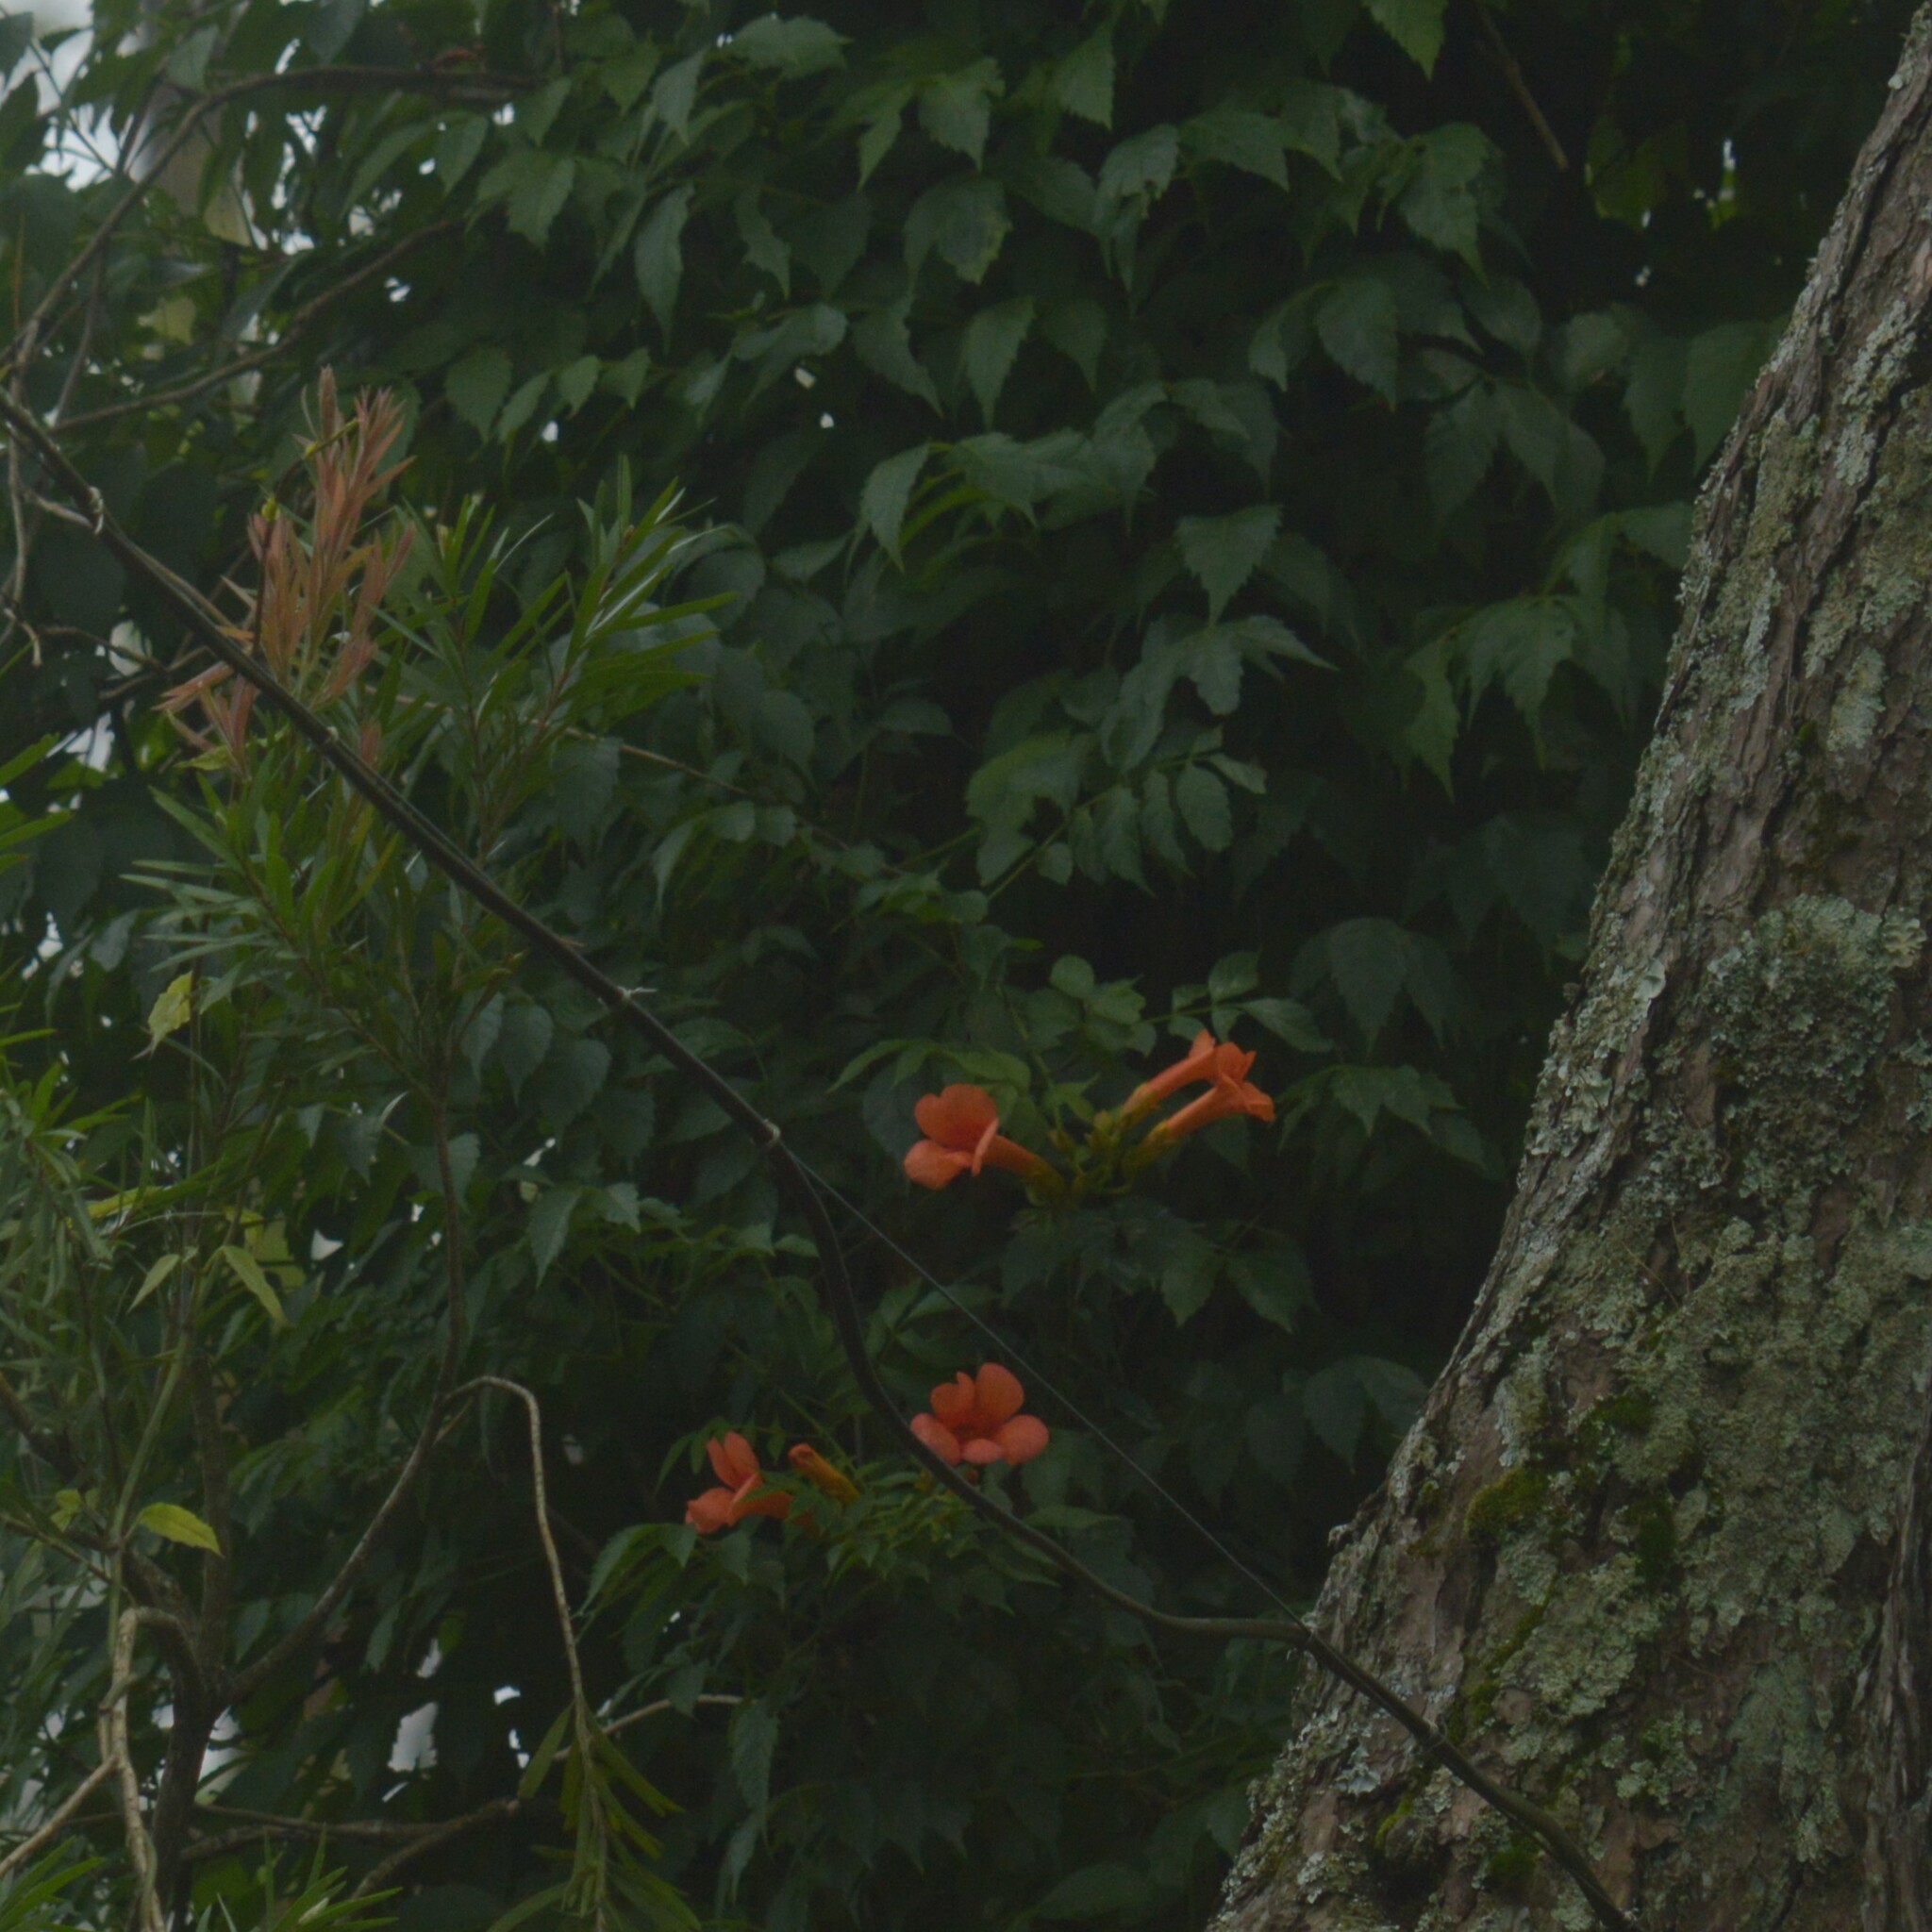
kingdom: Plantae
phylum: Tracheophyta
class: Magnoliopsida
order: Lamiales
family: Bignoniaceae
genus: Campsis
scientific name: Campsis radicans
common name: Trumpet-creeper
